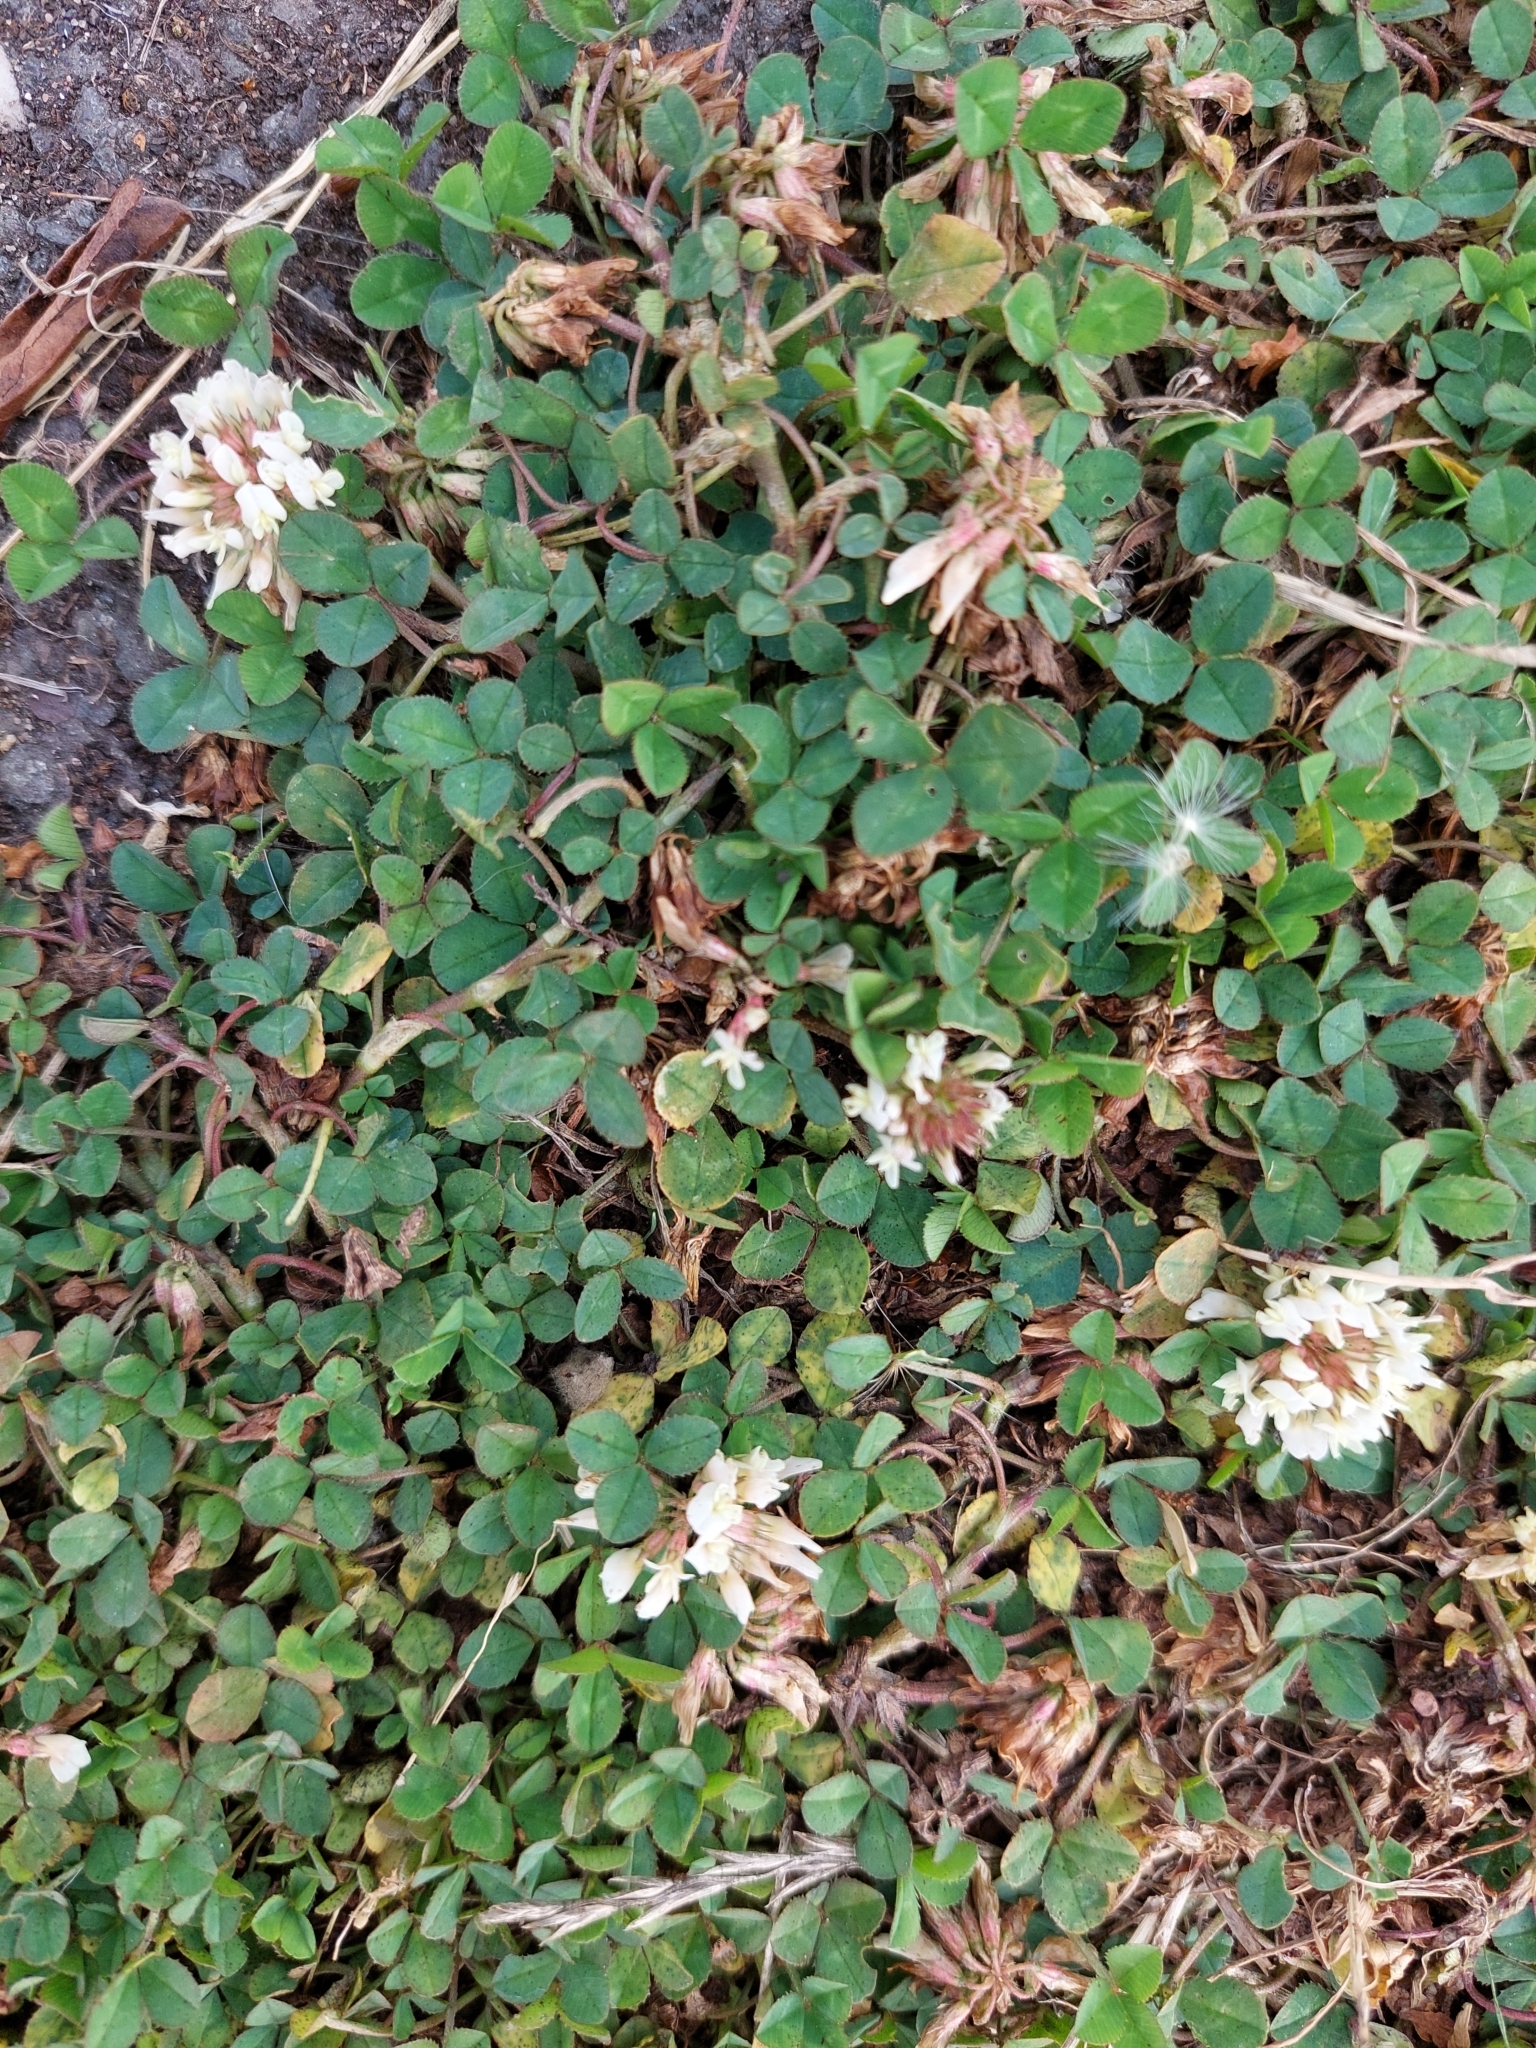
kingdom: Plantae
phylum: Tracheophyta
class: Magnoliopsida
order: Fabales
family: Fabaceae
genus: Trifolium
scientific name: Trifolium repens
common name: White clover
